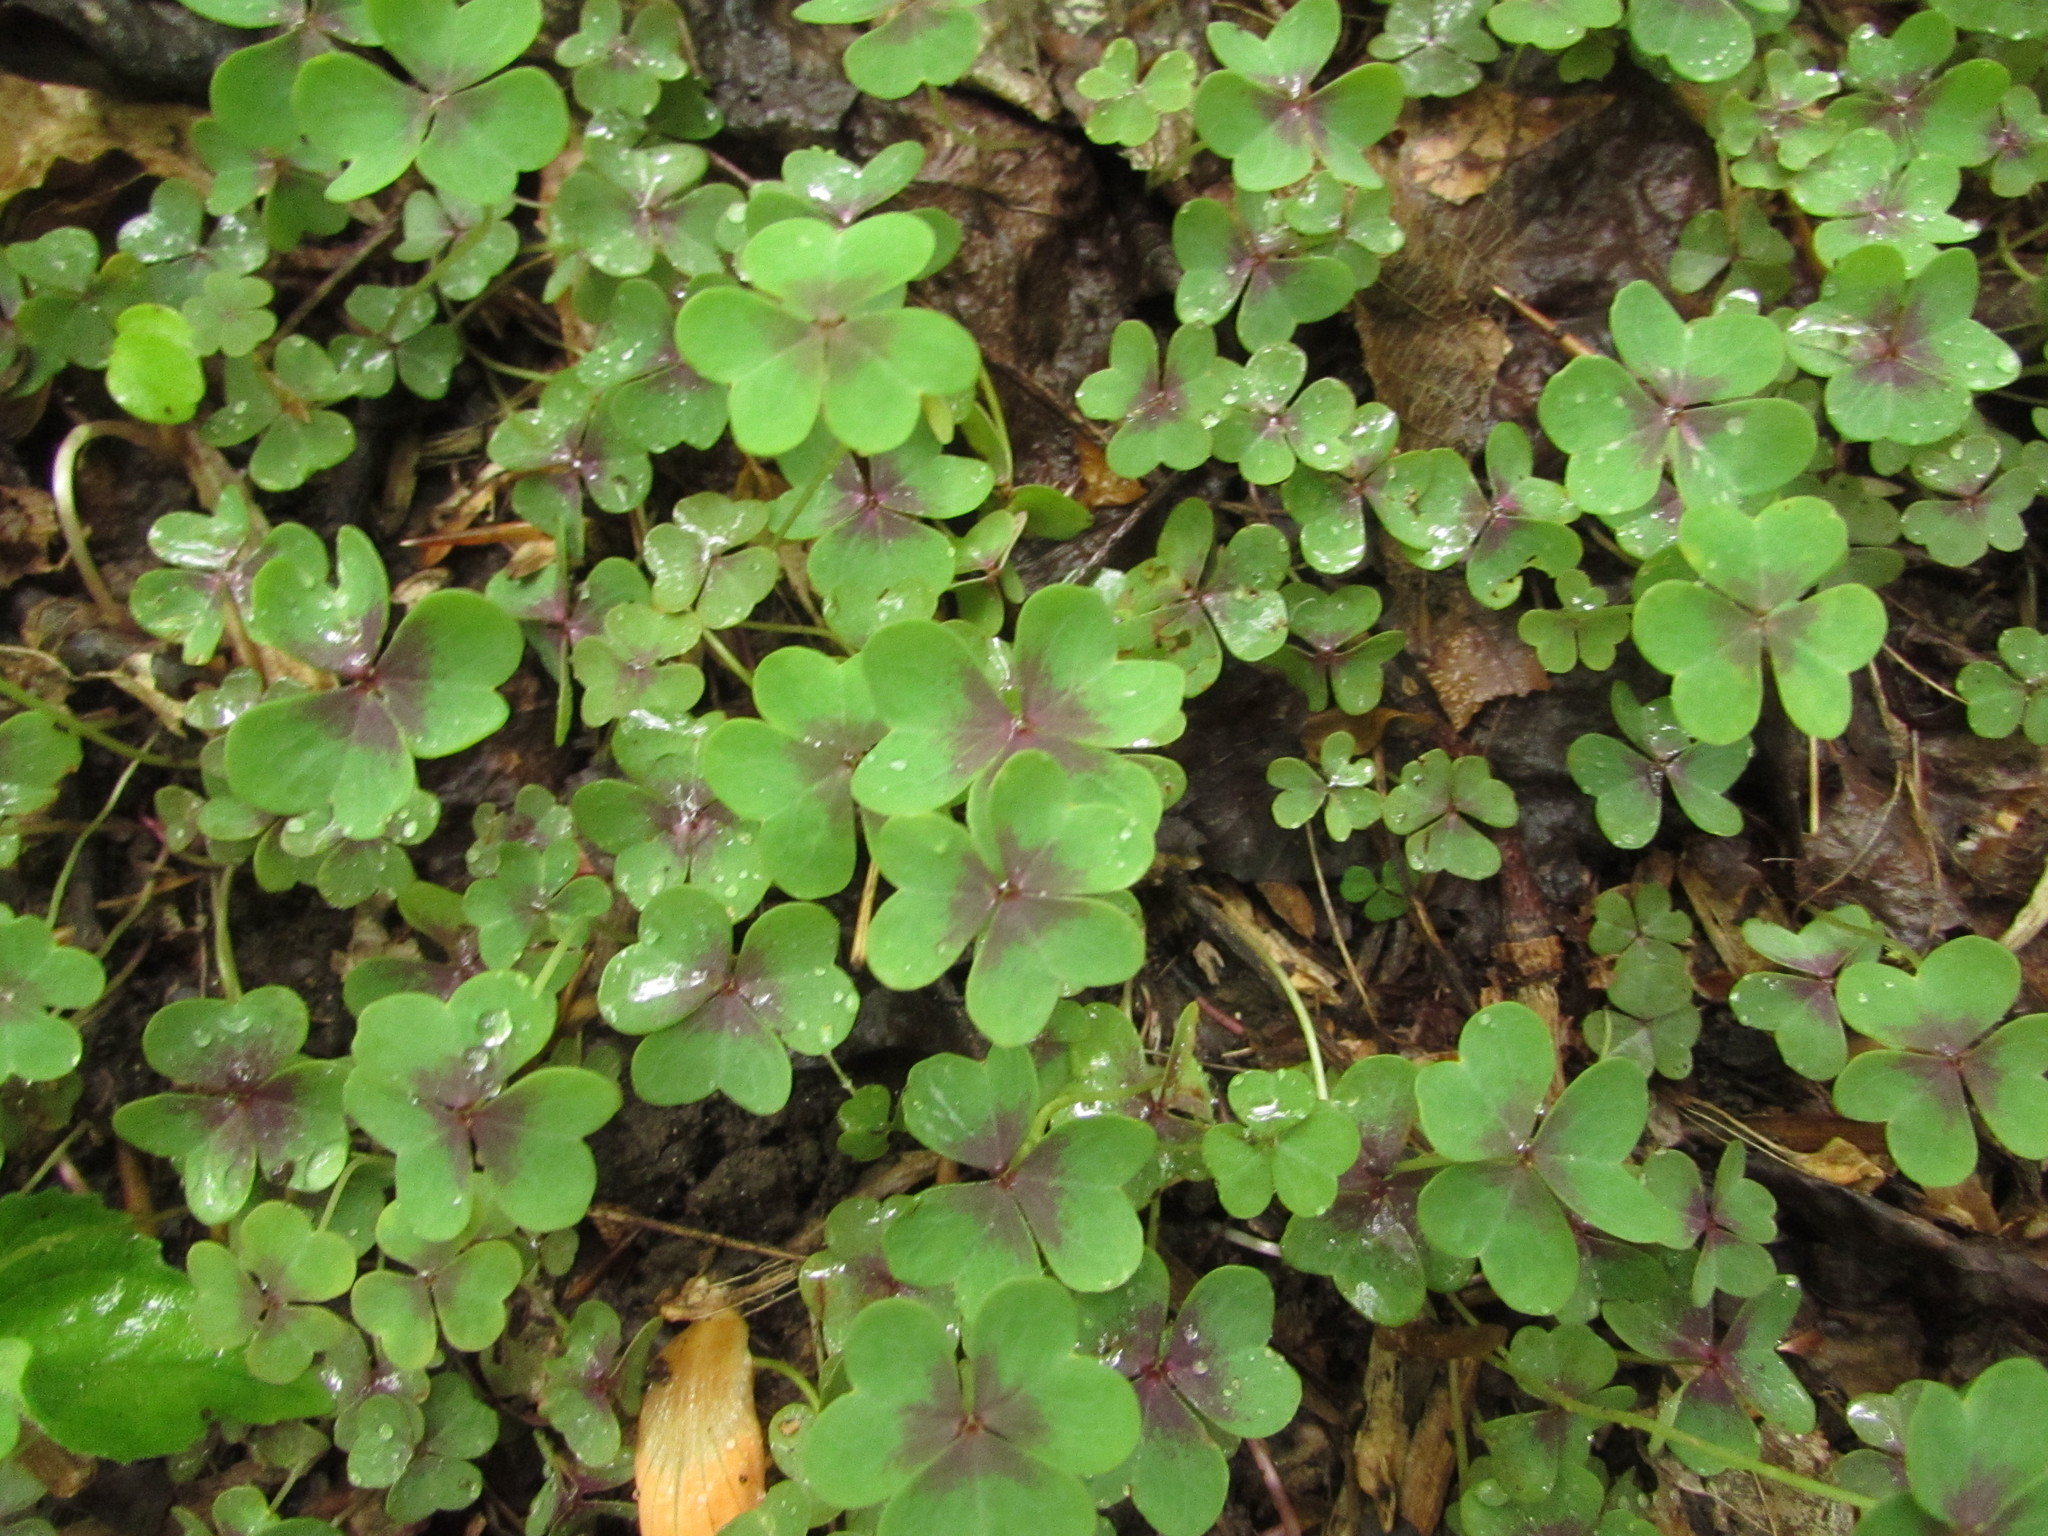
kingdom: Plantae
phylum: Tracheophyta
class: Magnoliopsida
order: Oxalidales
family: Oxalidaceae
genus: Oxalis
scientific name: Oxalis violacea
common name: Violet wood-sorrel
